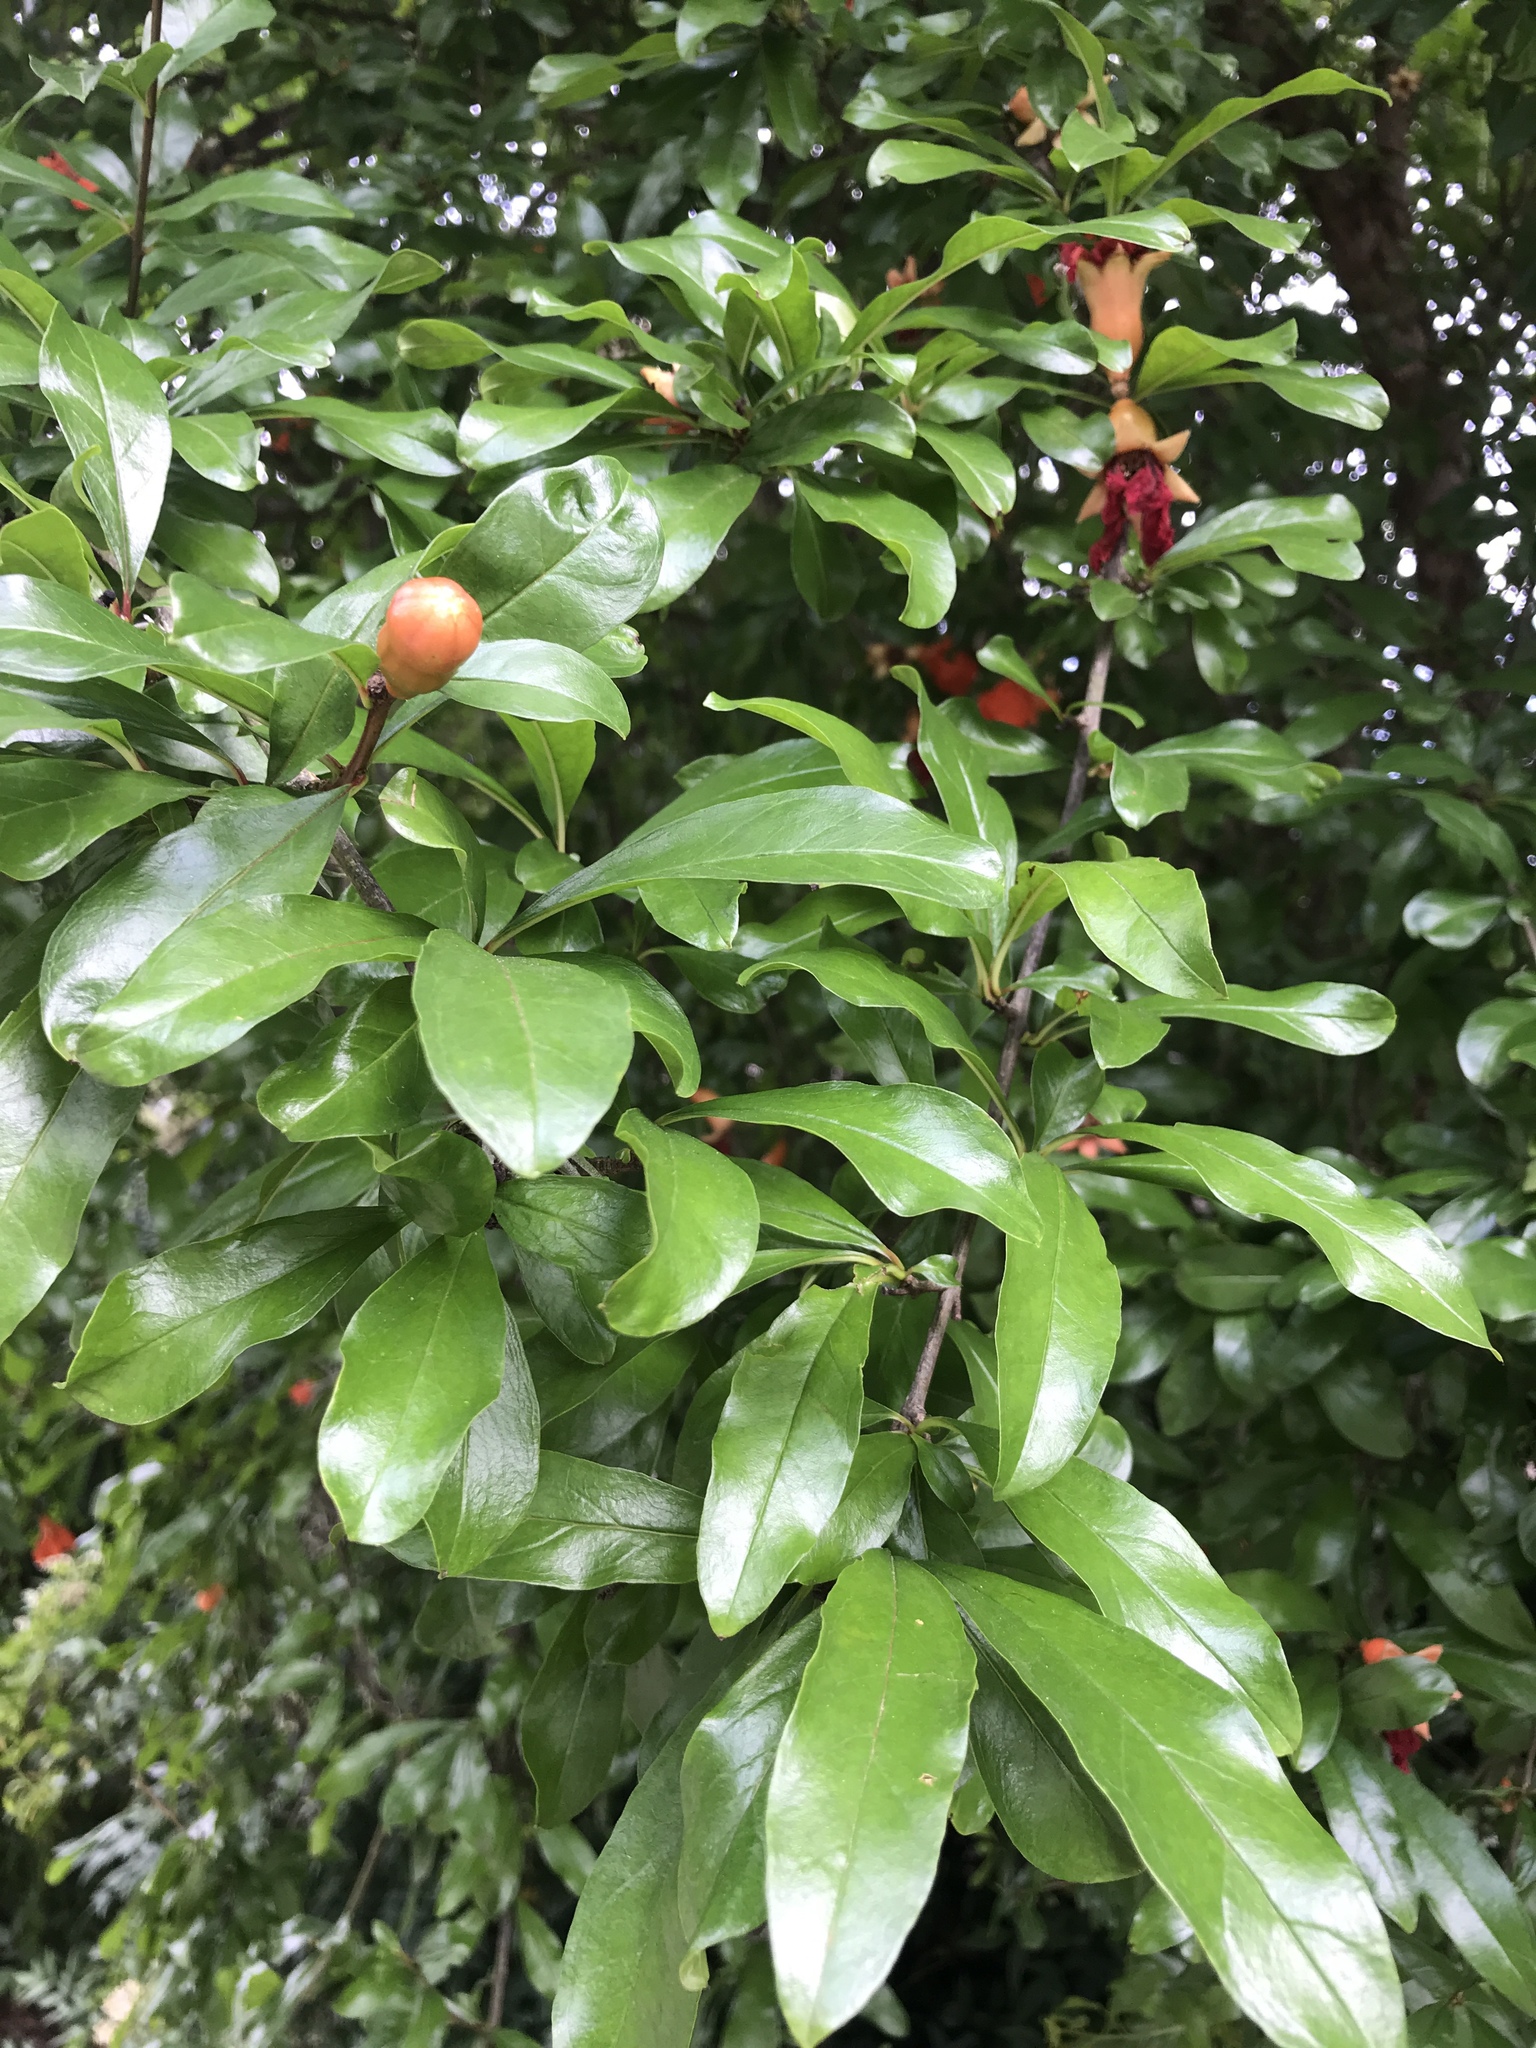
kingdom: Plantae
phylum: Tracheophyta
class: Magnoliopsida
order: Myrtales
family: Lythraceae
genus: Punica
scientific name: Punica granatum
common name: Pomegranate
